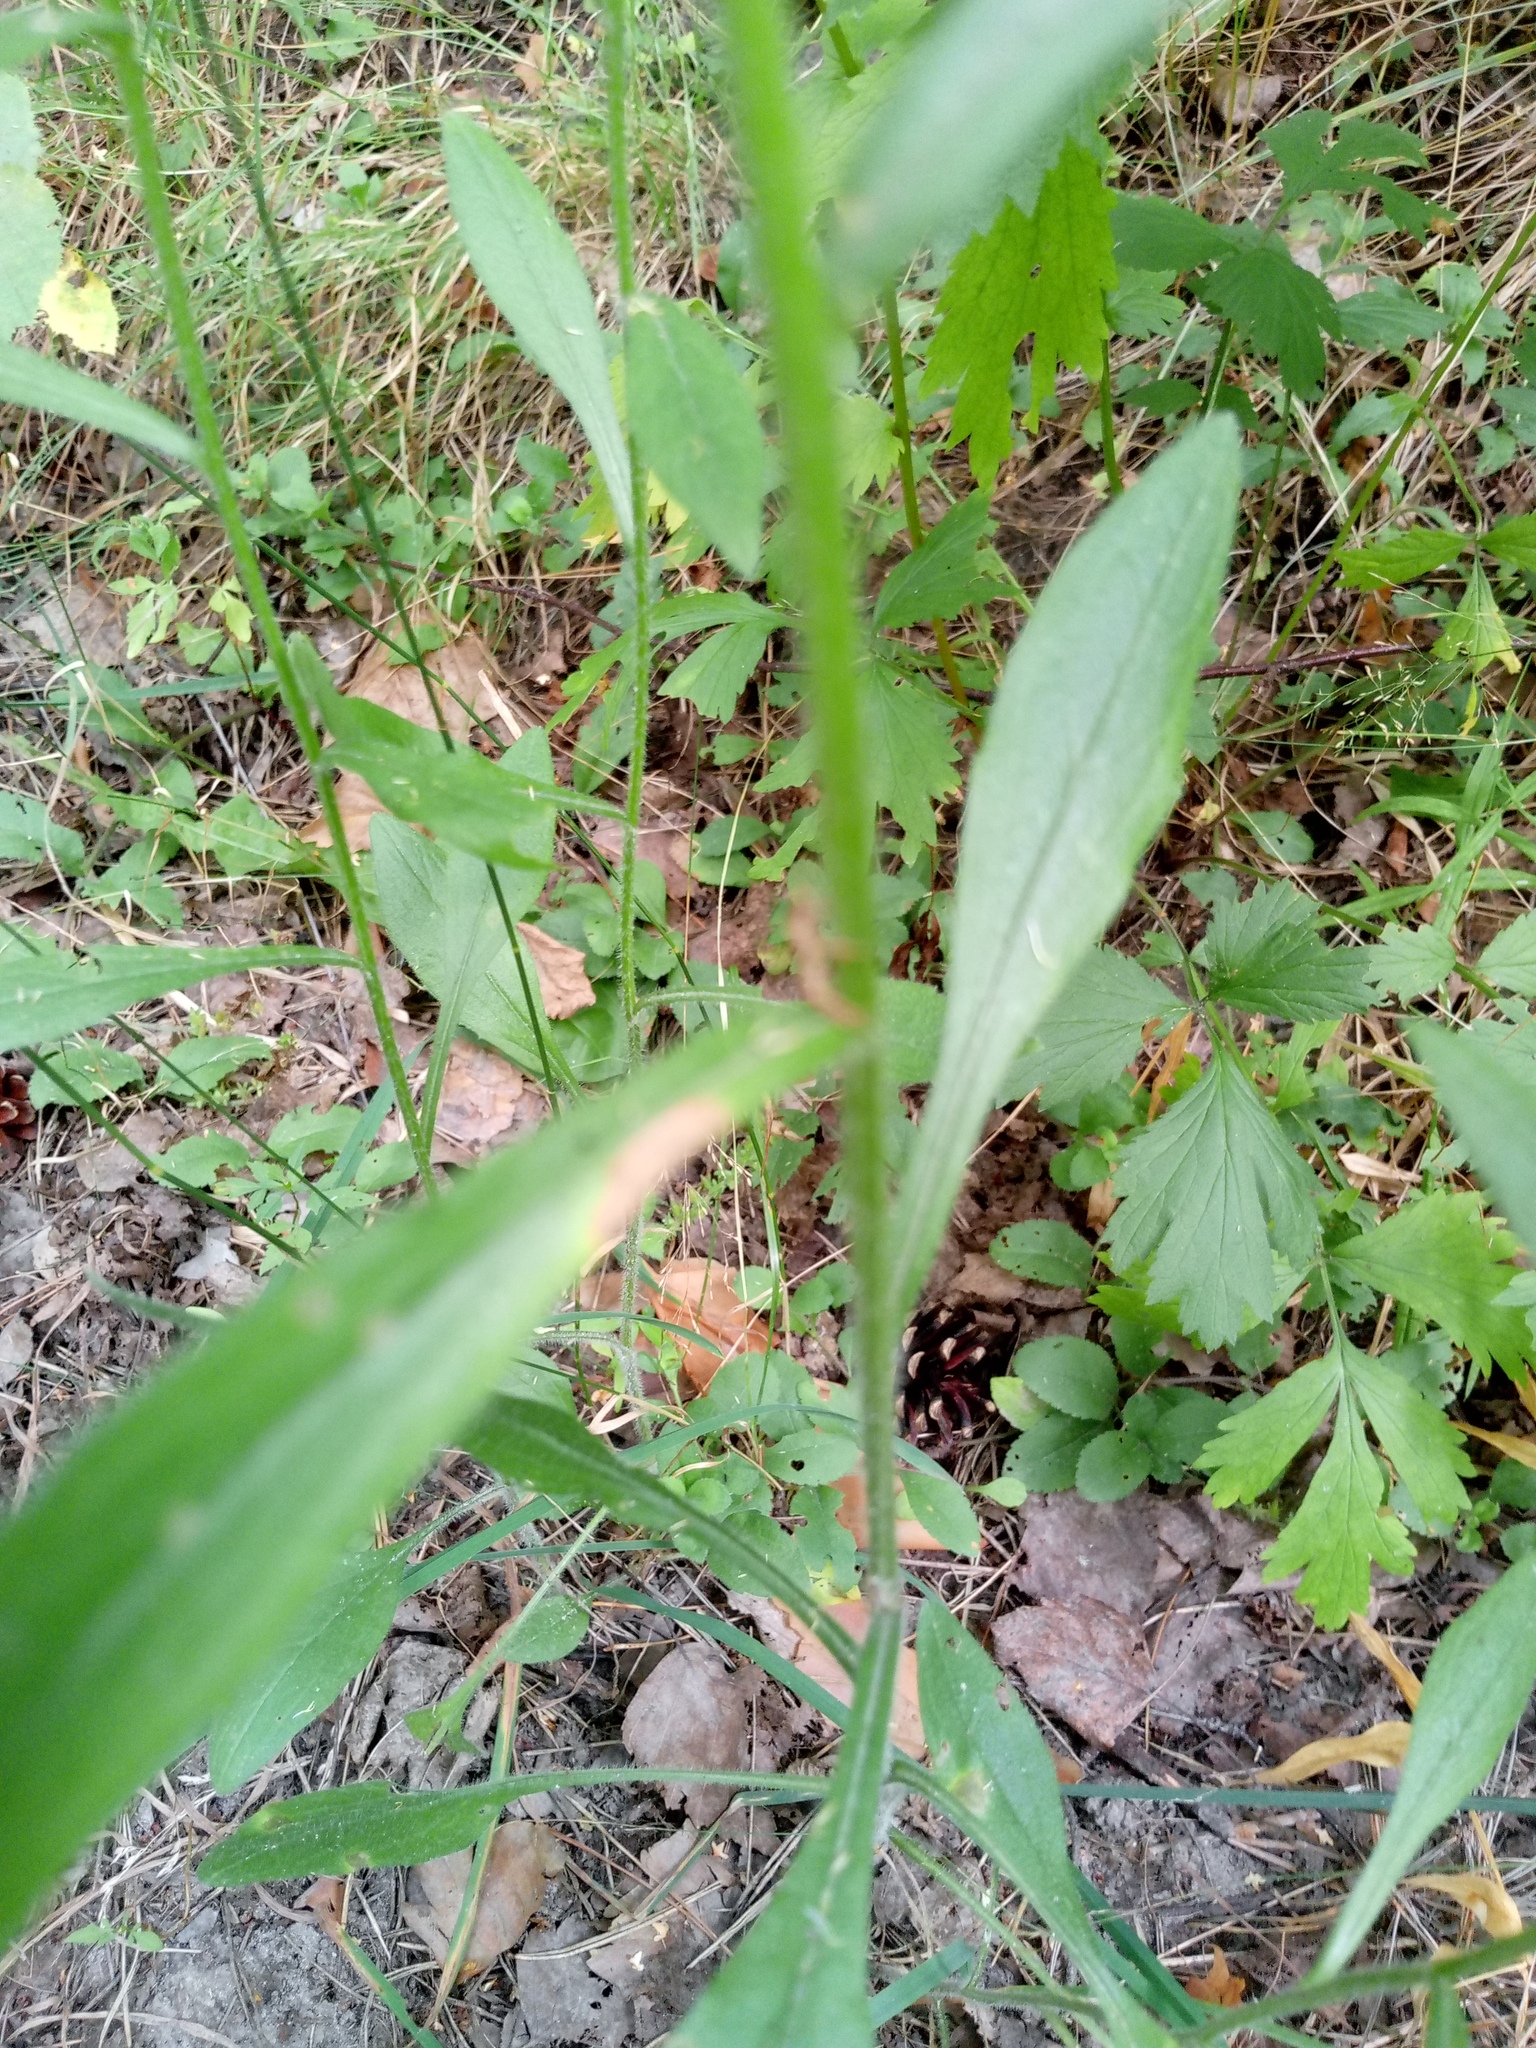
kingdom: Plantae
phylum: Tracheophyta
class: Magnoliopsida
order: Asterales
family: Asteraceae
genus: Erigeron
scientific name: Erigeron annuus
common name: Tall fleabane
